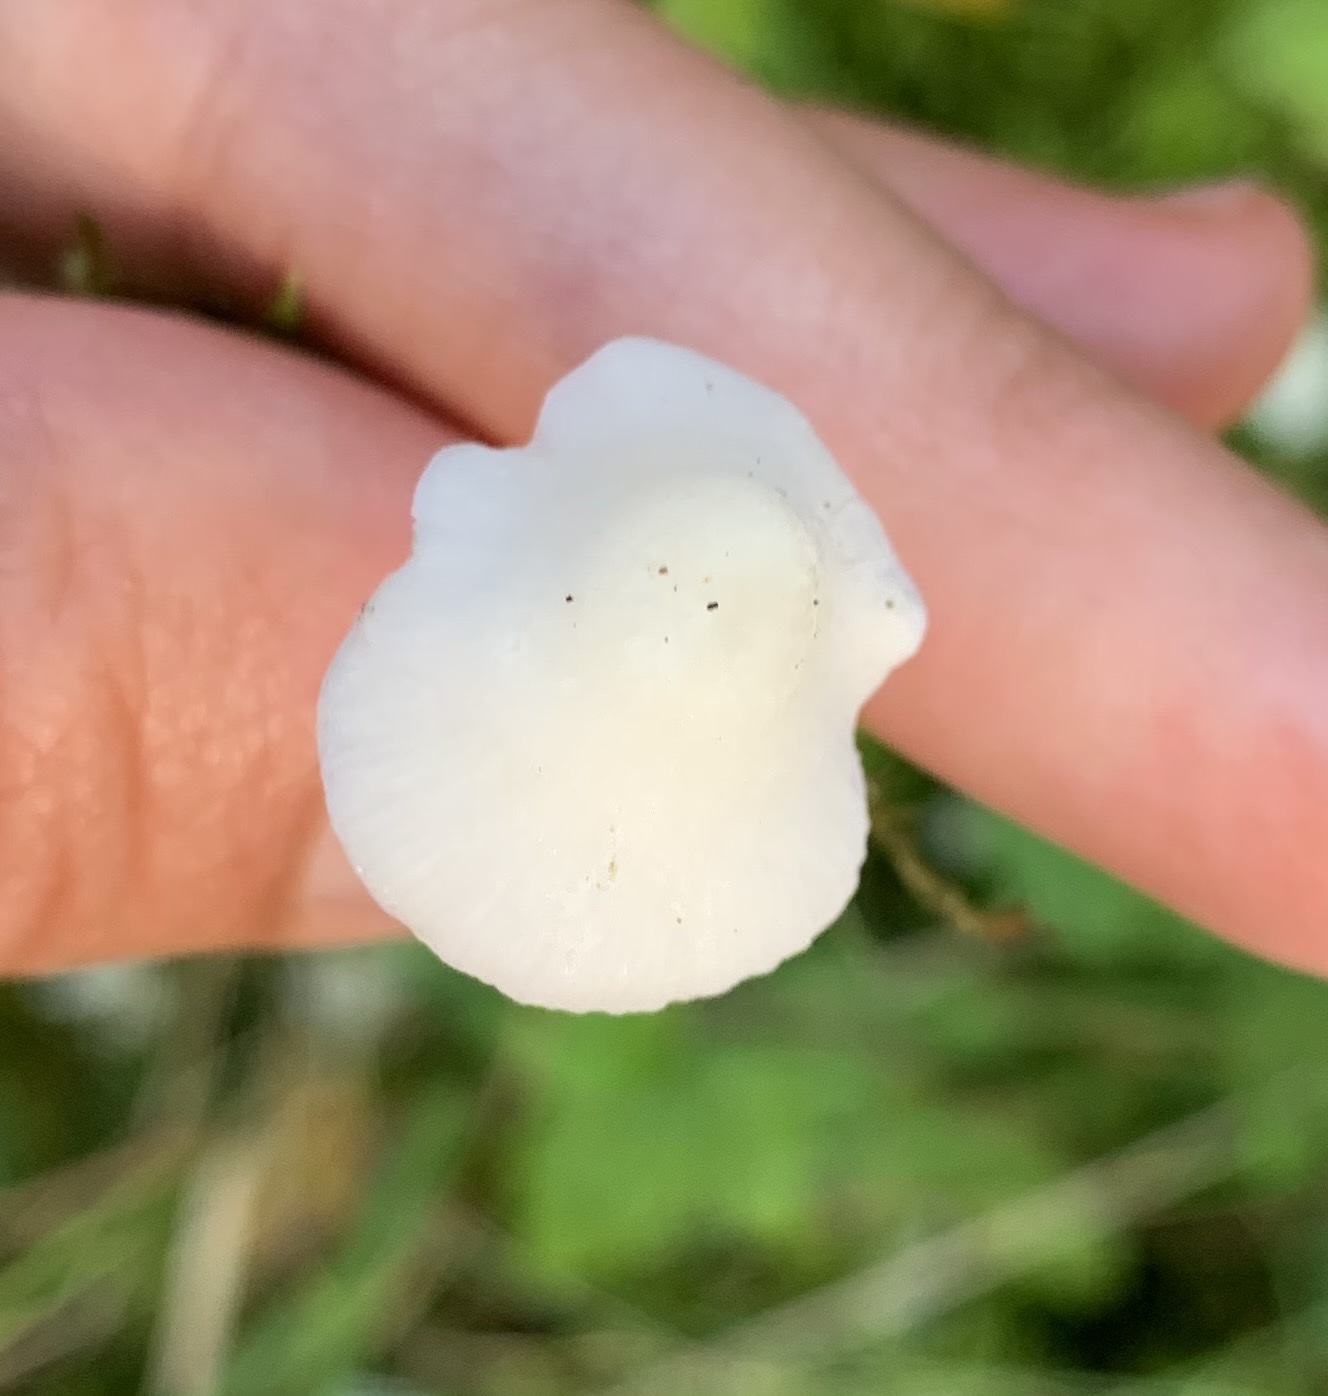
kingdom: Fungi
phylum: Basidiomycota
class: Agaricomycetes
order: Agaricales
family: Mycenaceae
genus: Hemimycena
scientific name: Hemimycena lactea
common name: Milky bonnet
